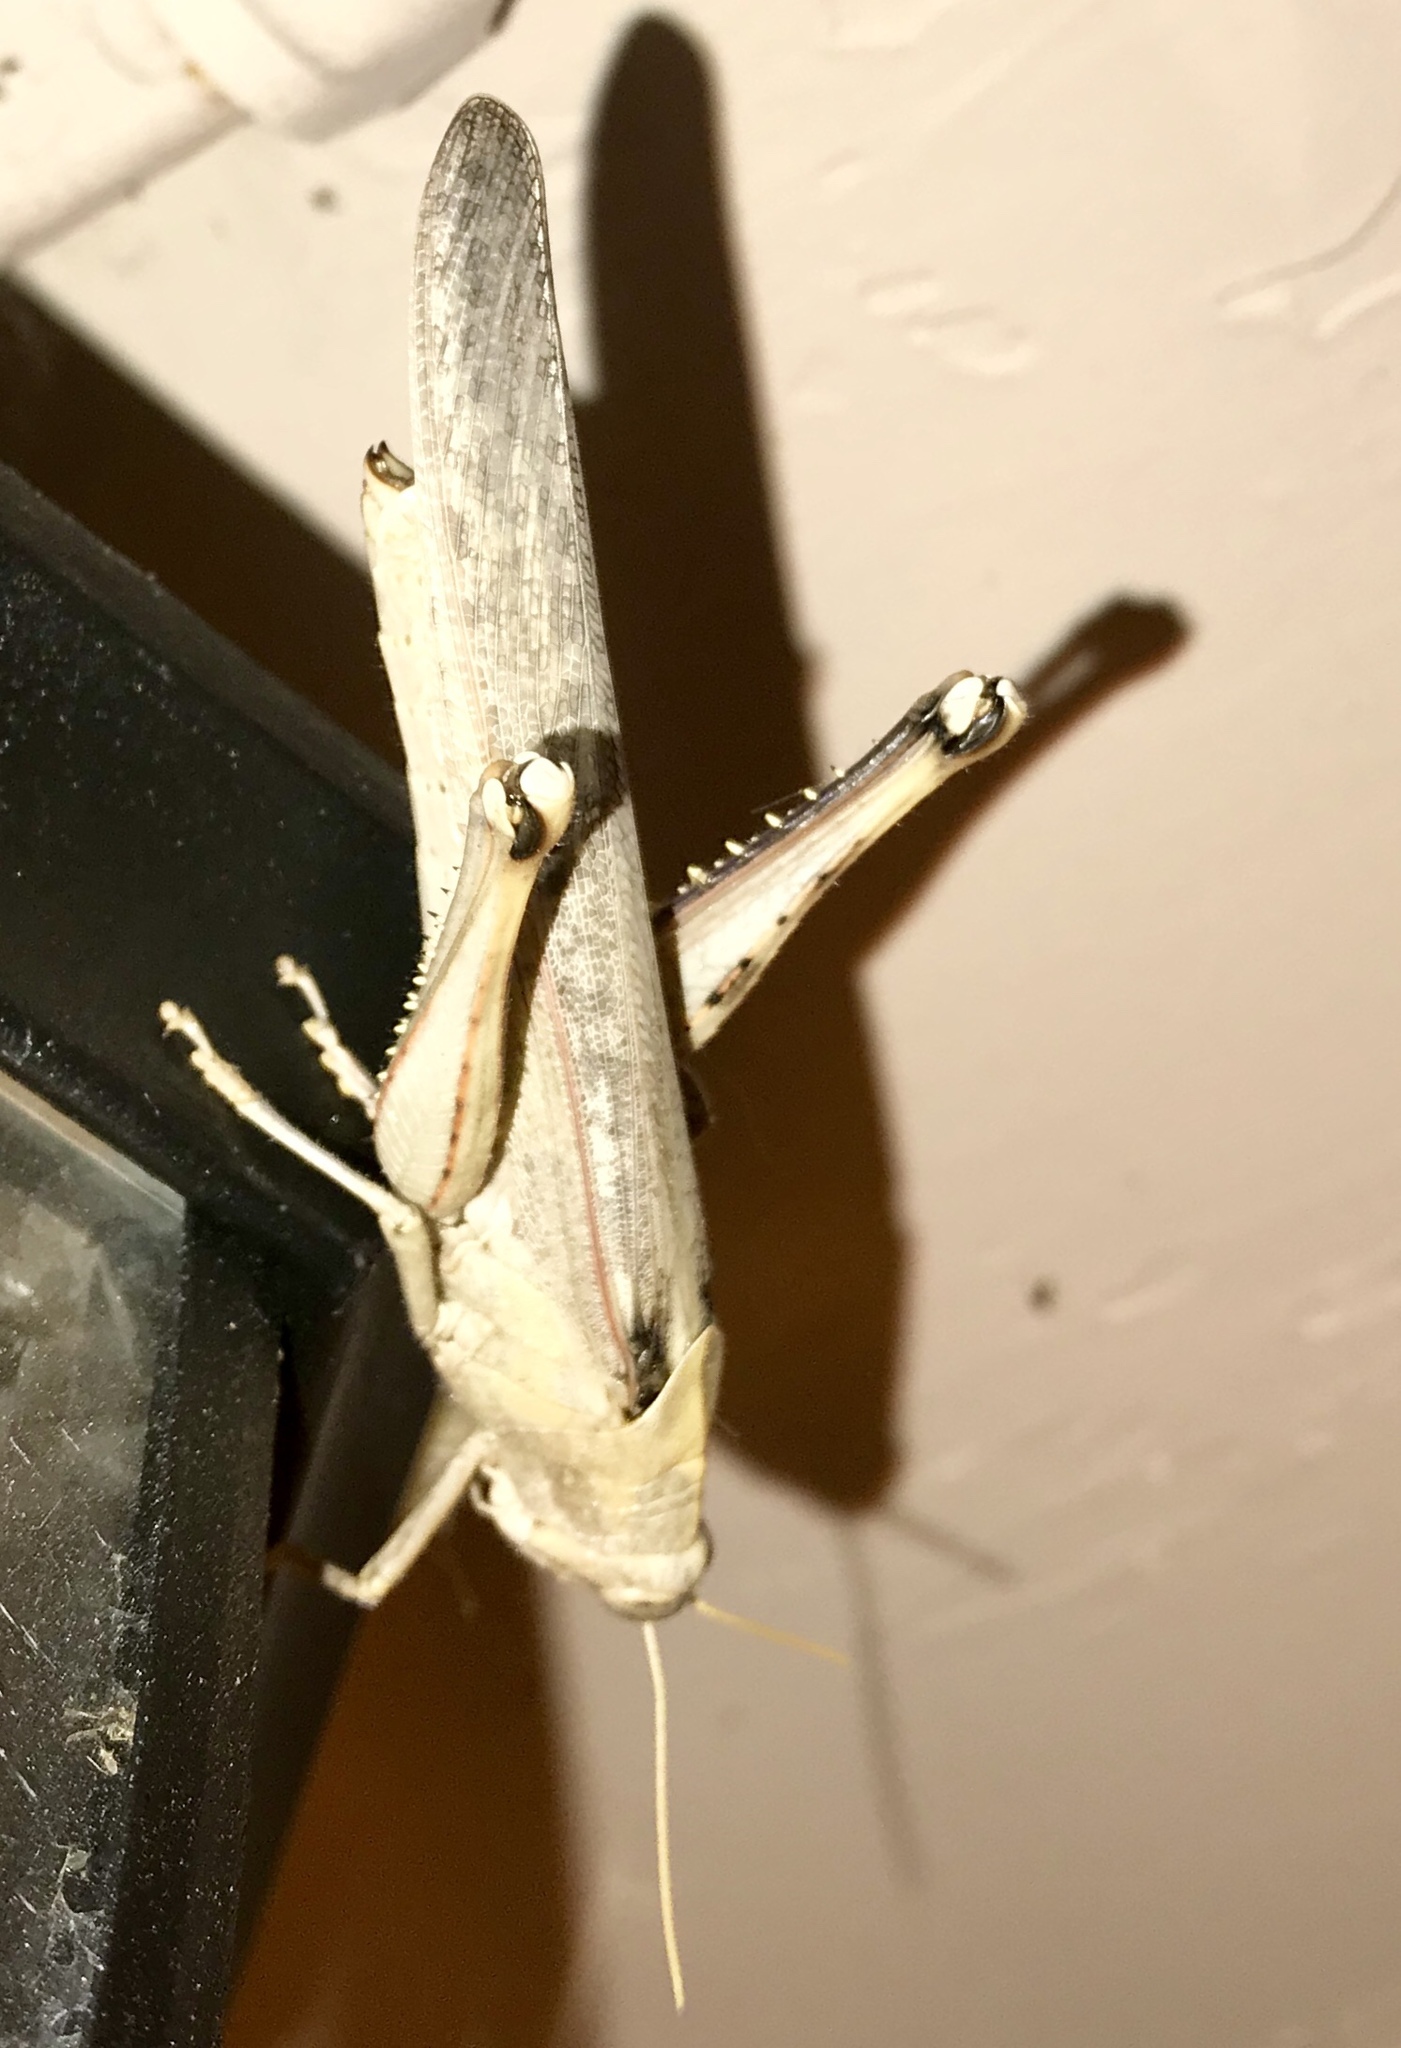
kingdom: Animalia
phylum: Arthropoda
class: Insecta
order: Orthoptera
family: Acrididae
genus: Schistocerca
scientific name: Schistocerca nitens
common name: Vagrant grasshopper
